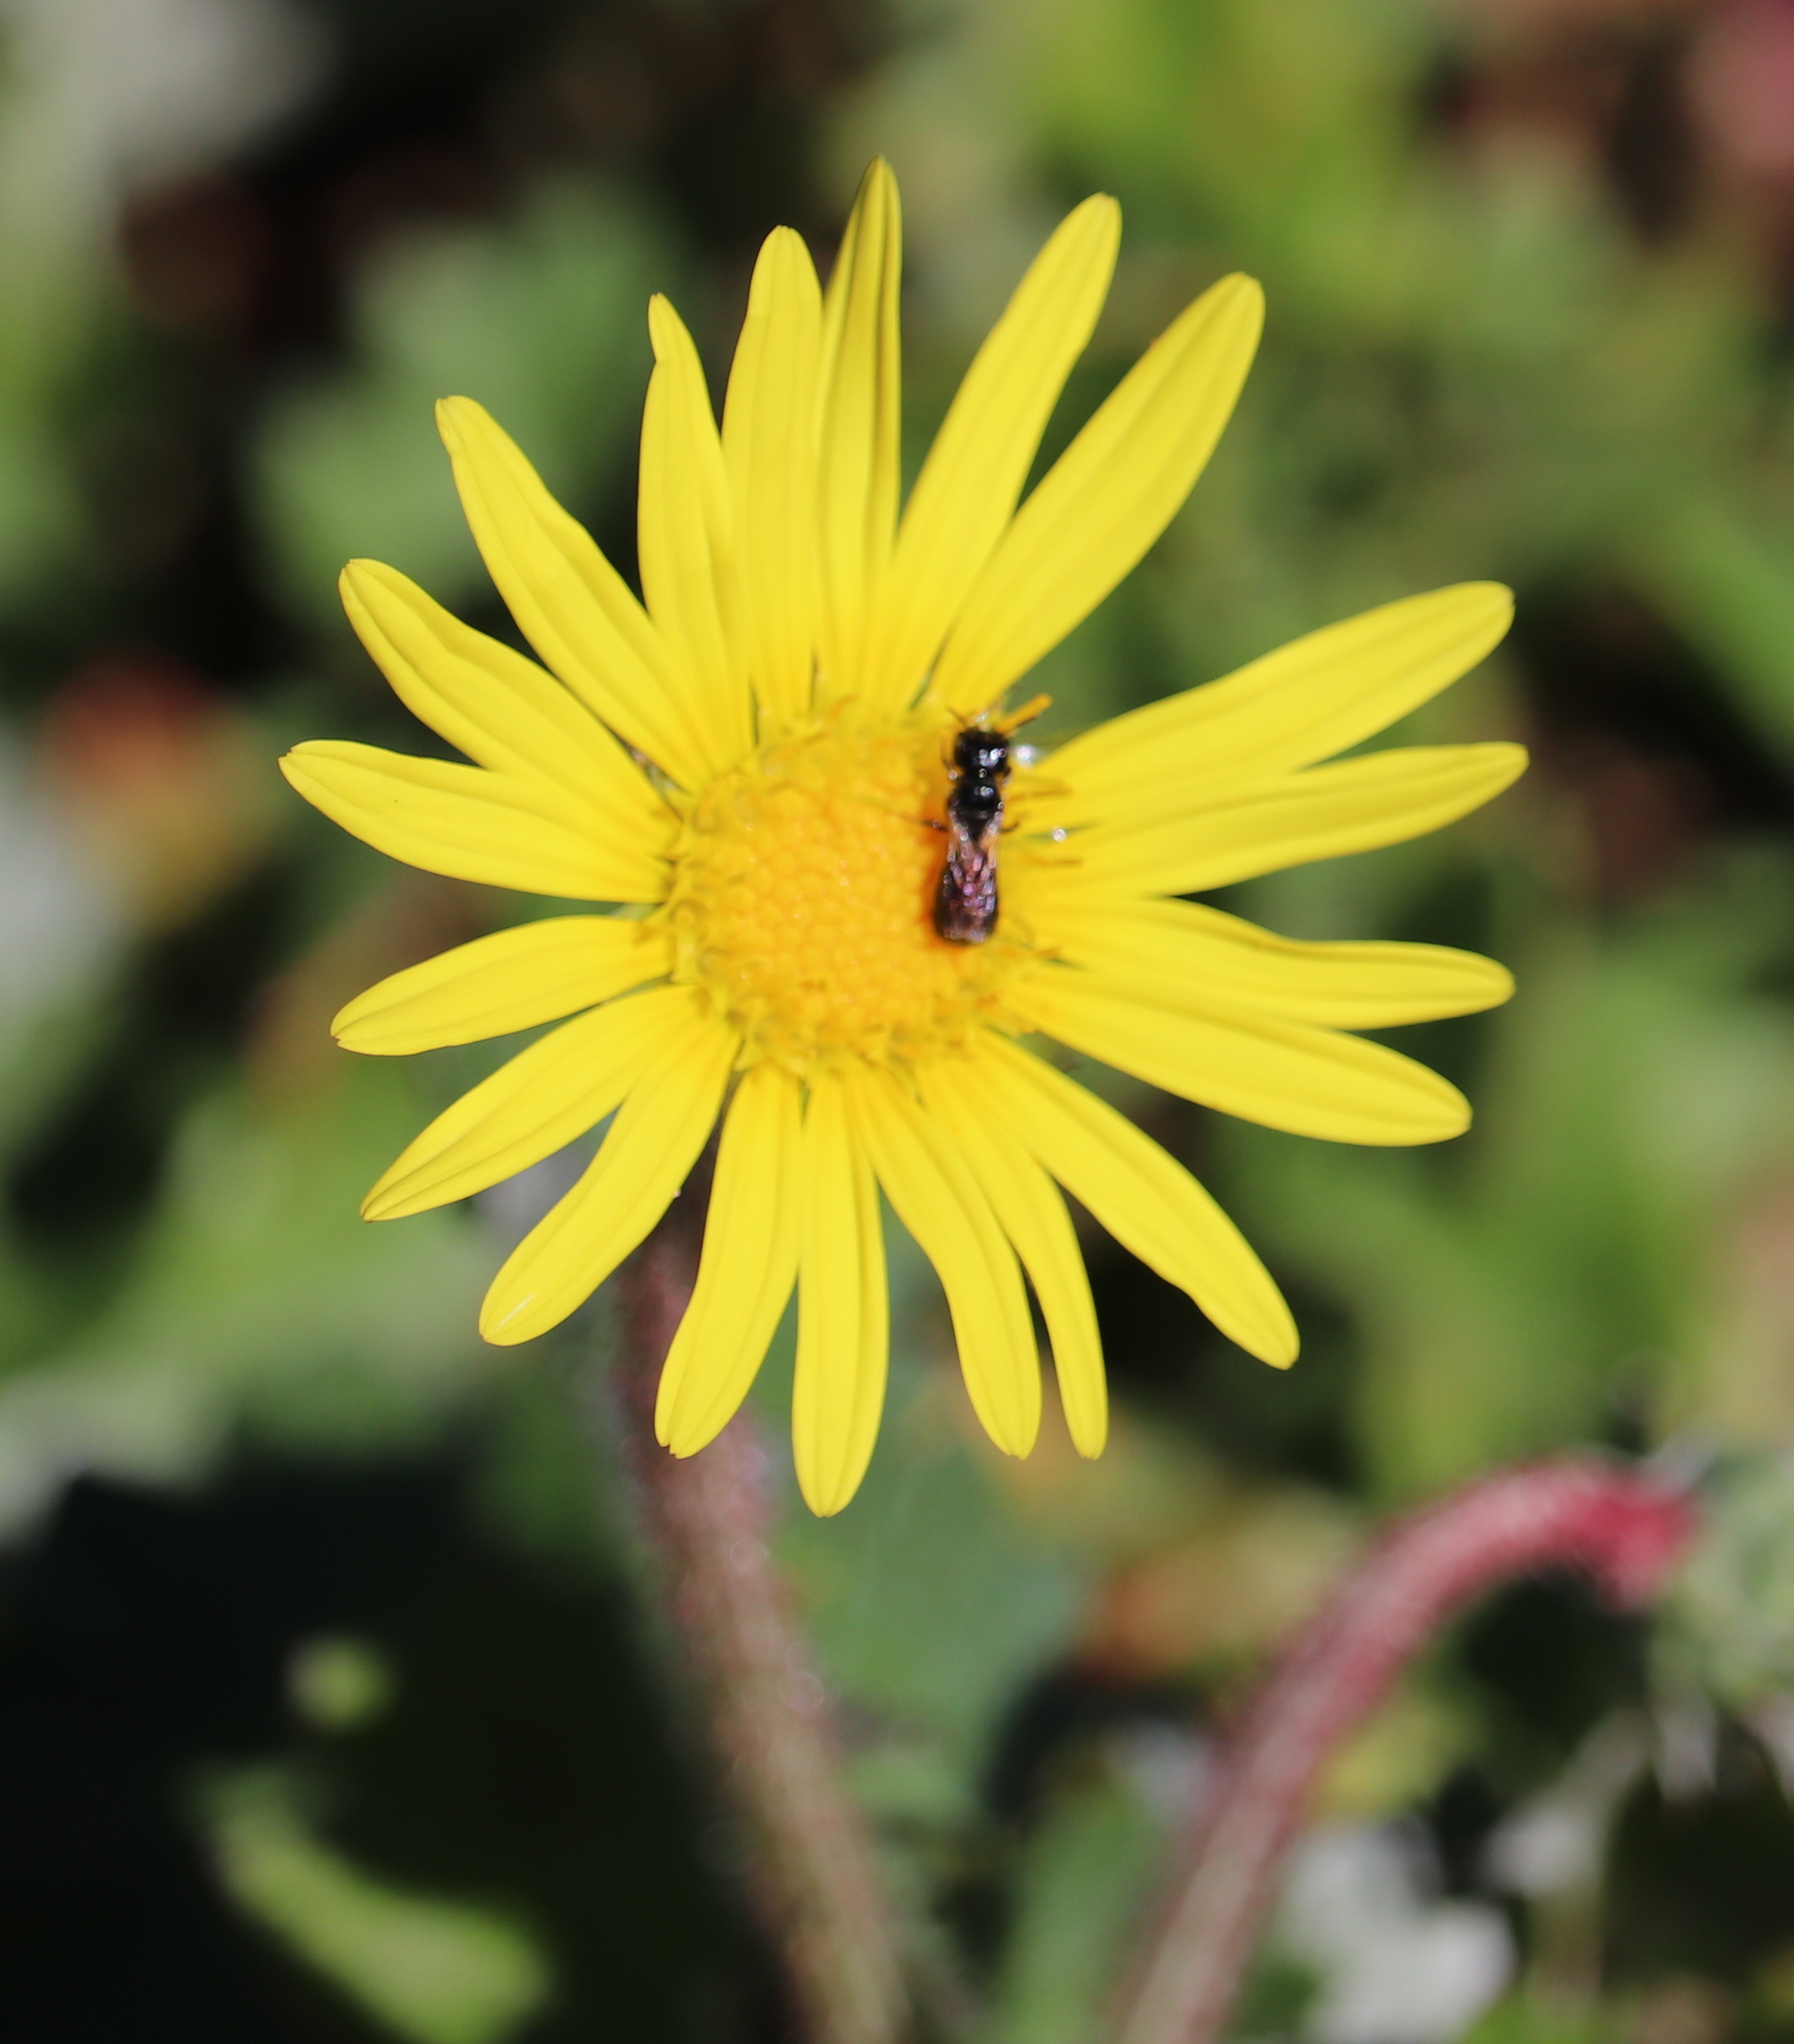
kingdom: Plantae
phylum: Tracheophyta
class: Magnoliopsida
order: Asterales
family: Asteraceae
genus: Arctotheca
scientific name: Arctotheca prostrata
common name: Capeweed
